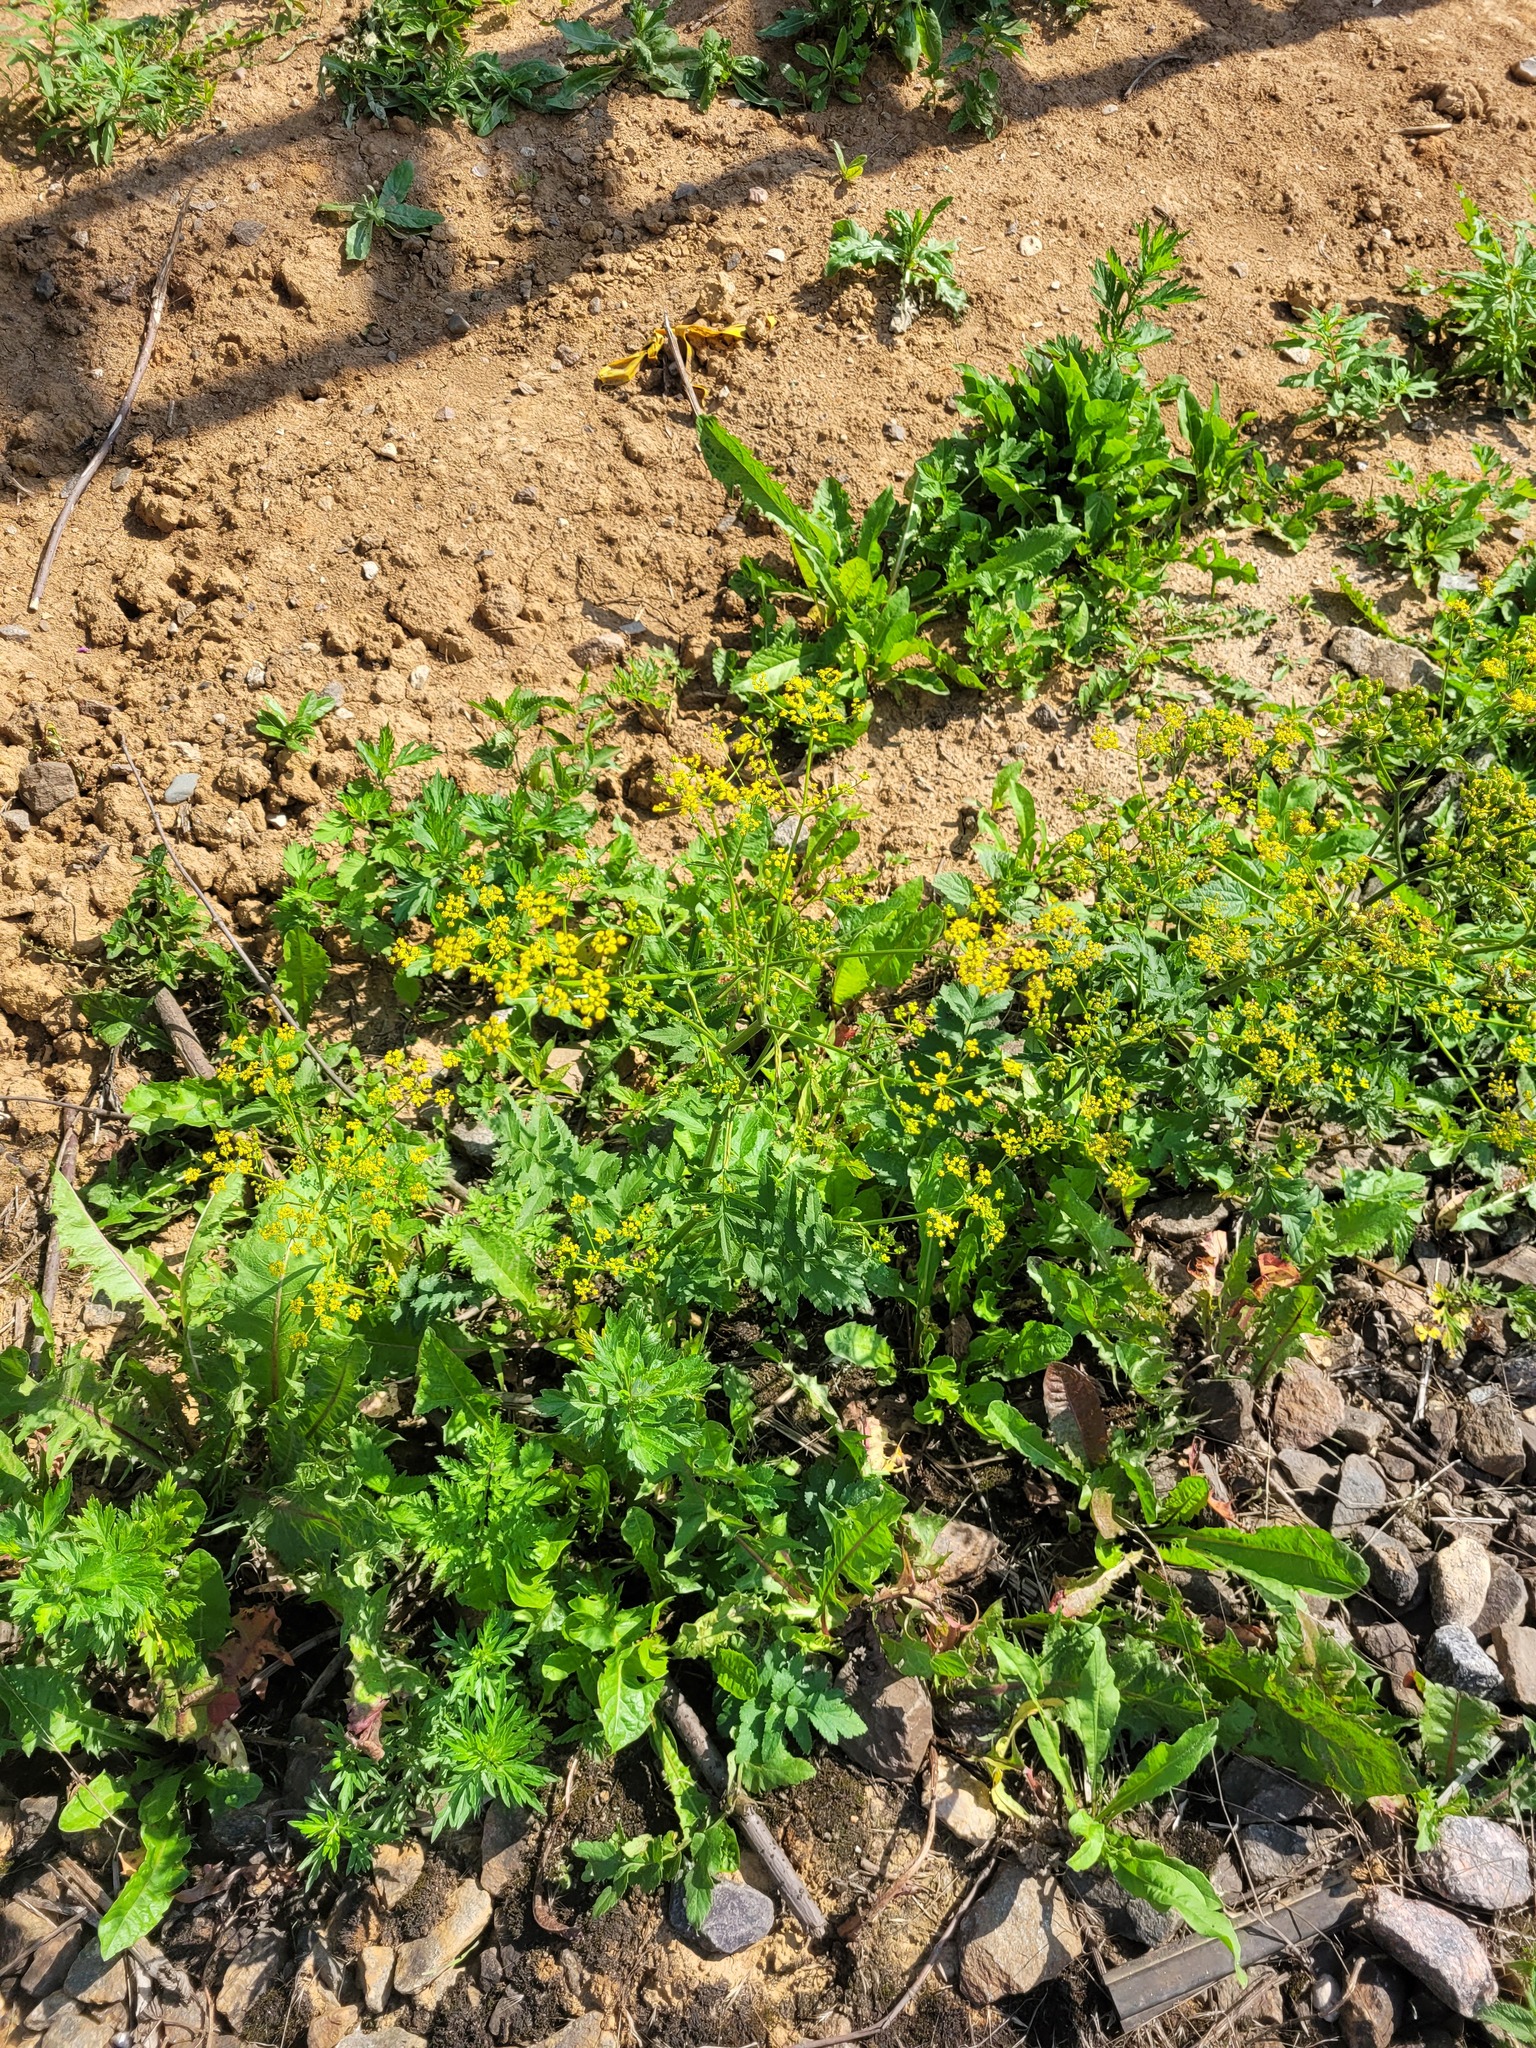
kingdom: Plantae
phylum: Tracheophyta
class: Magnoliopsida
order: Apiales
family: Apiaceae
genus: Pastinaca
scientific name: Pastinaca sativa
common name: Wild parsnip
